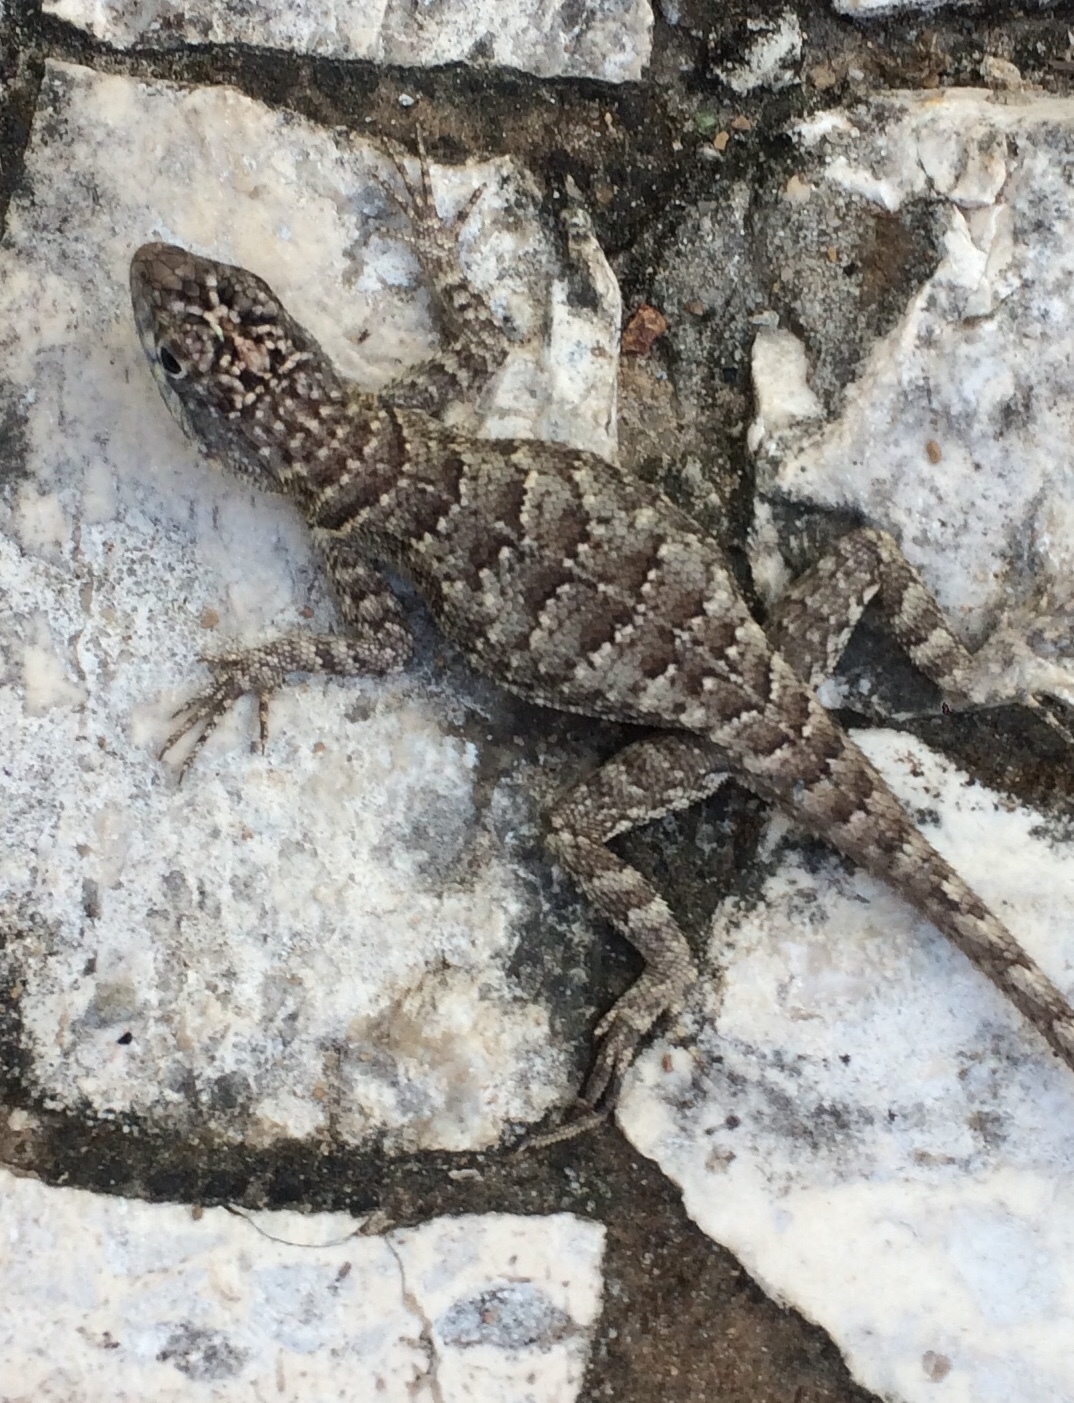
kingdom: Animalia
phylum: Chordata
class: Squamata
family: Tropiduridae
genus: Tropidurus
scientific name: Tropidurus hispidus
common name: Peters' lava lizard
